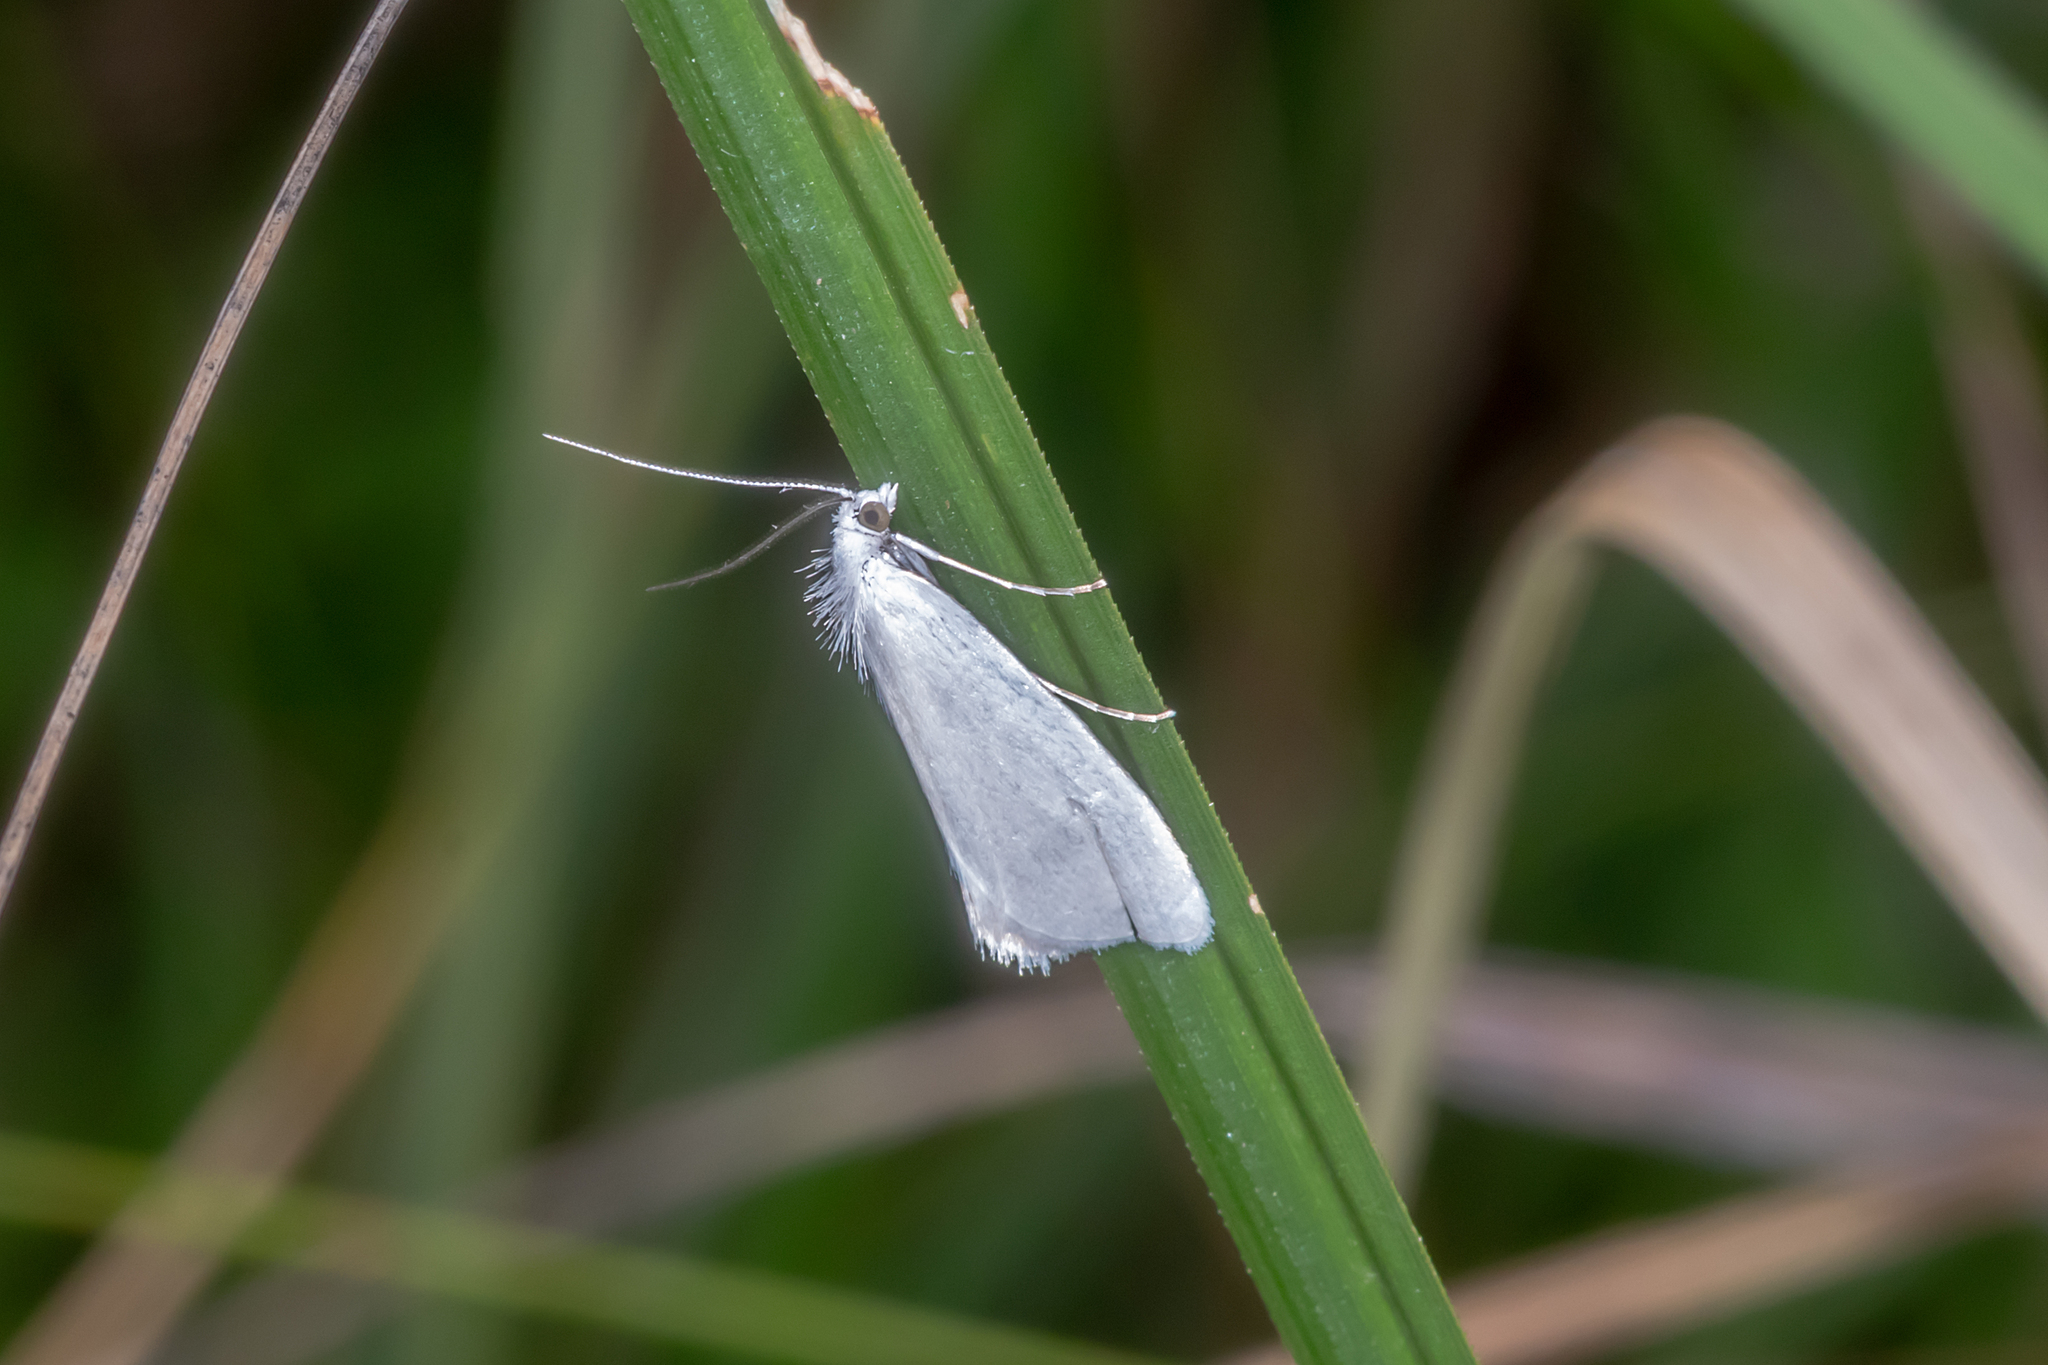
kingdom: Animalia
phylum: Arthropoda
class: Insecta
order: Lepidoptera
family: Crambidae
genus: Tipanaea
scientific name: Tipanaea patulella
